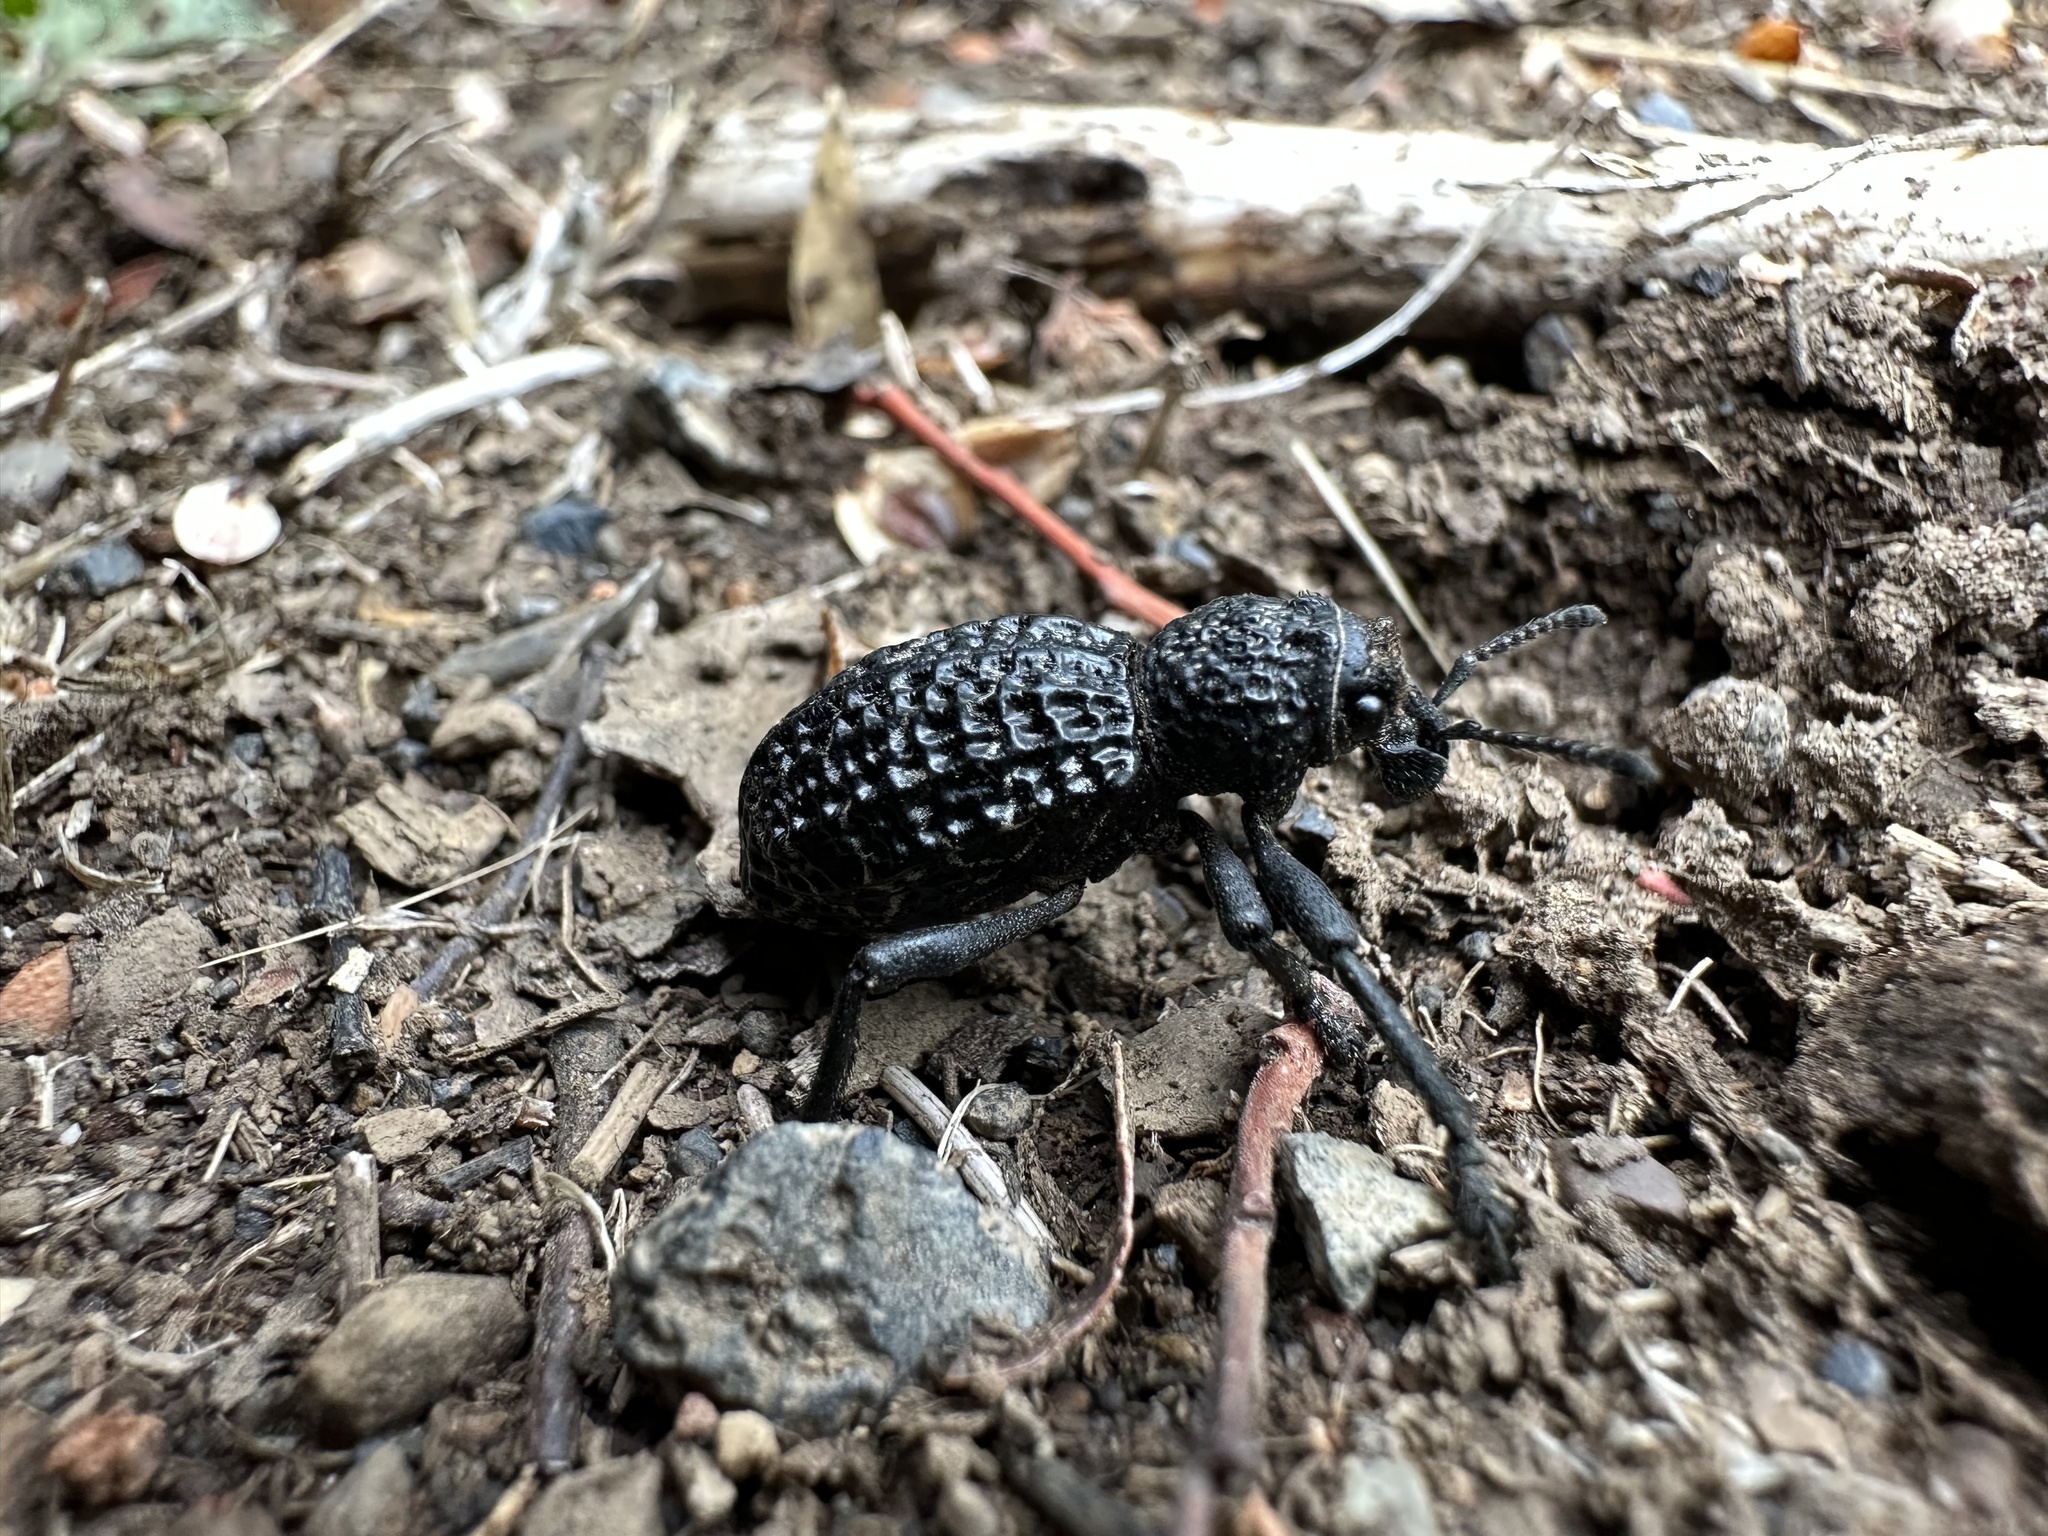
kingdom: Animalia
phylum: Arthropoda
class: Insecta
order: Coleoptera
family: Curculionidae
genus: Aegorhinus
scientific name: Aegorhinus superciliosus
